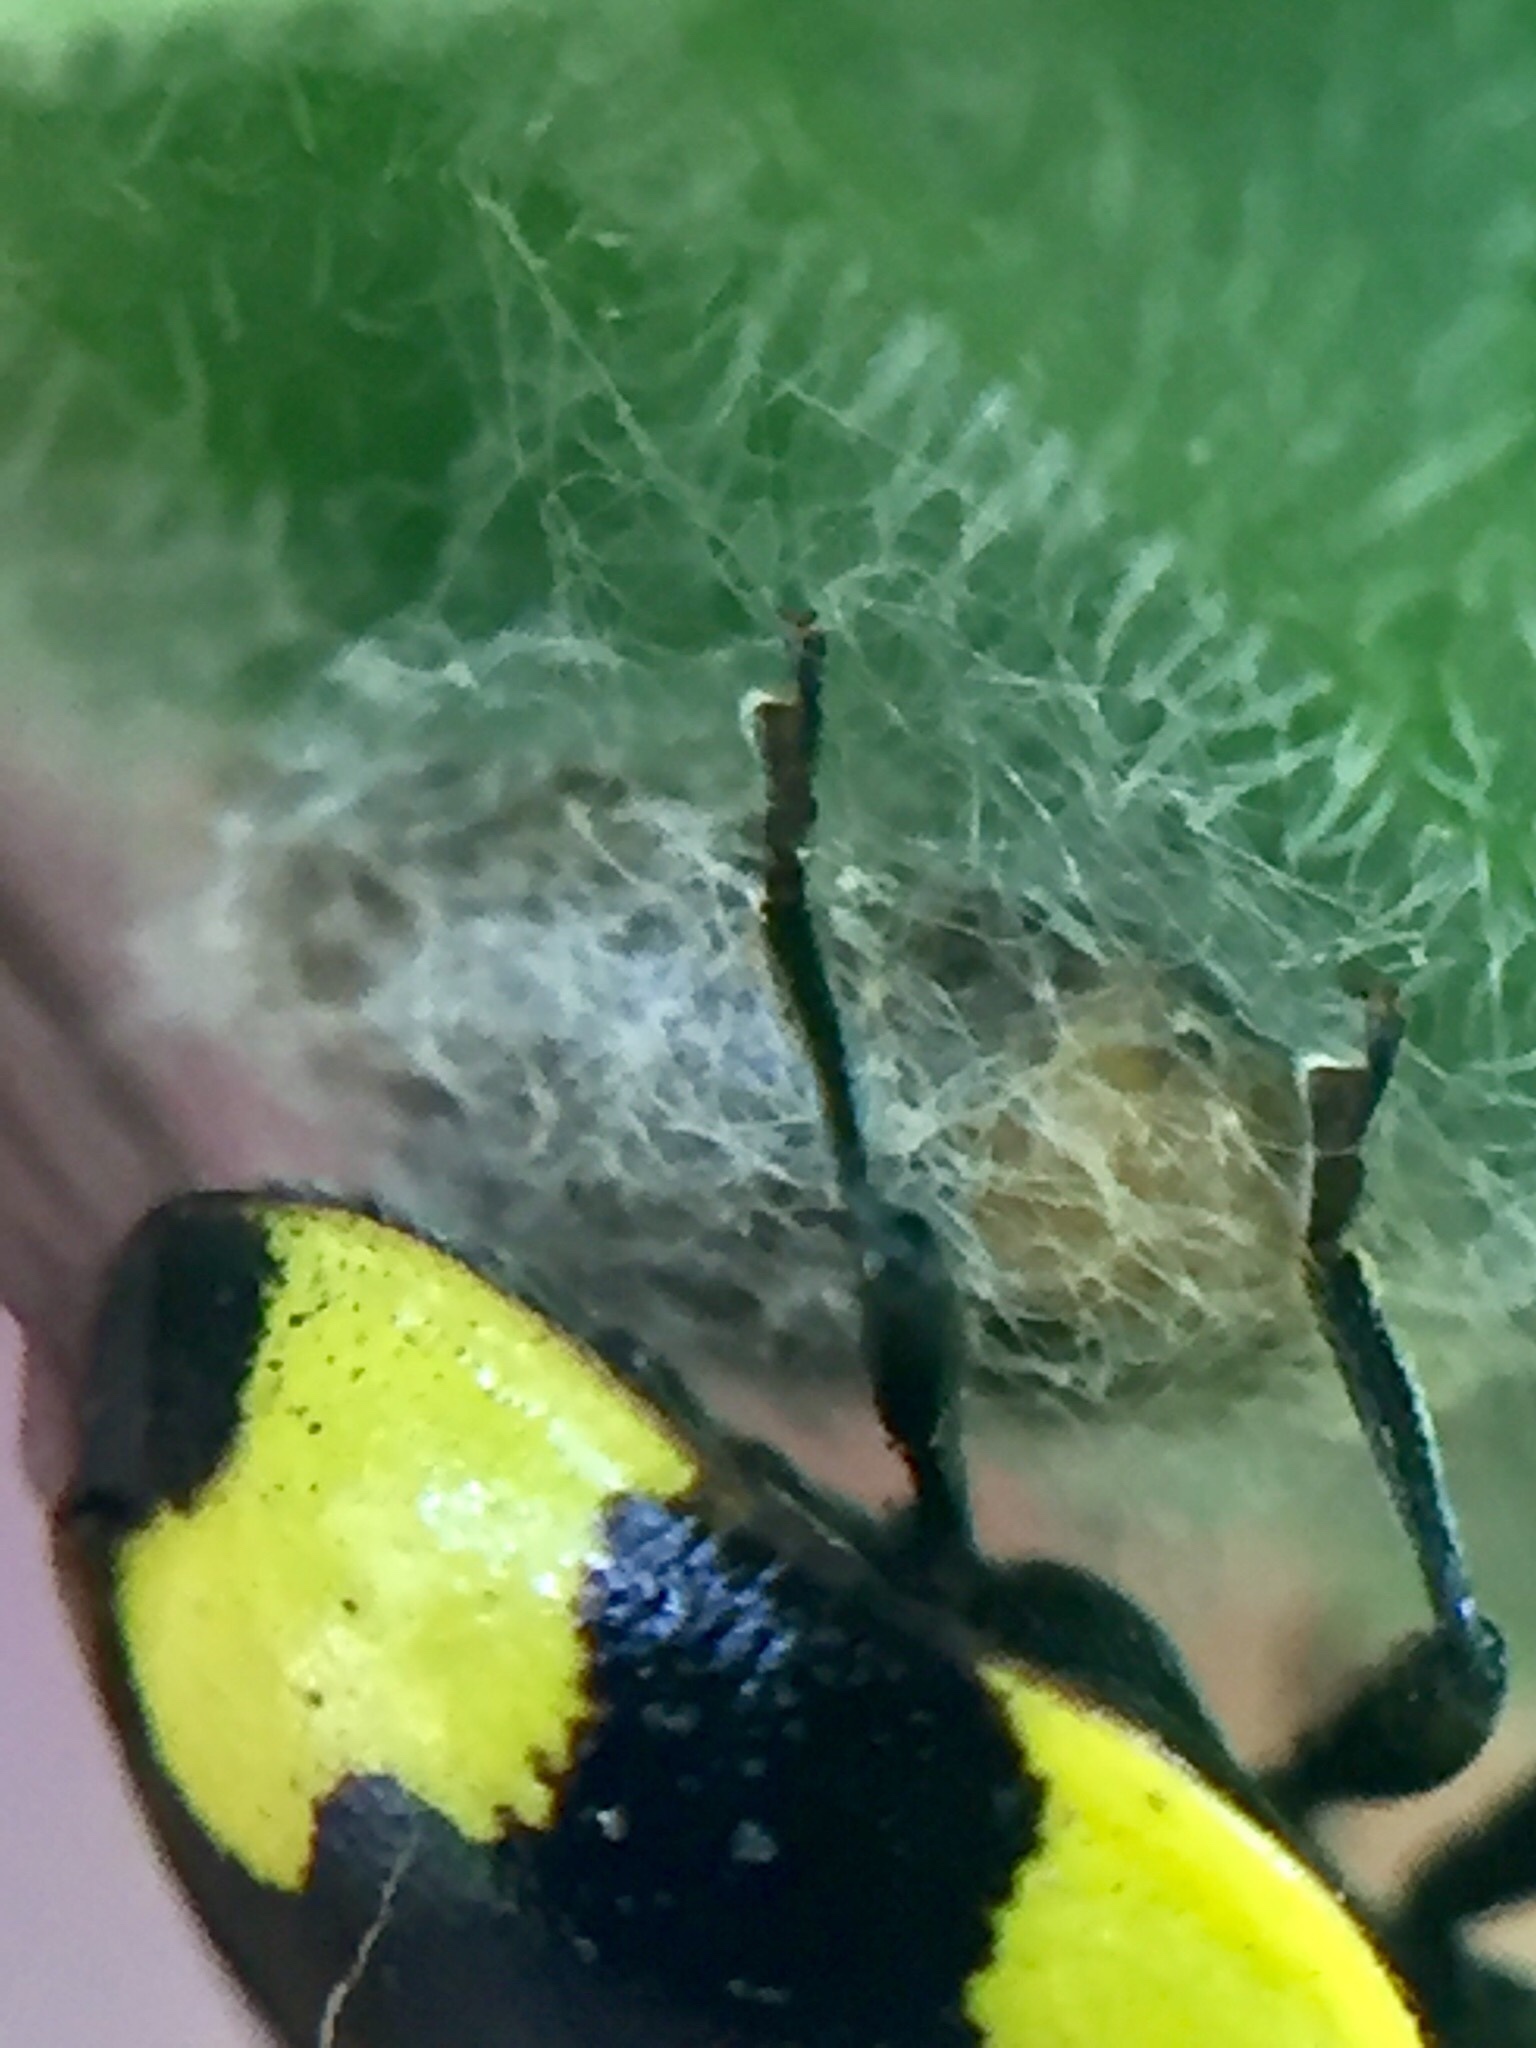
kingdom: Animalia
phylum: Arthropoda
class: Insecta
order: Hymenoptera
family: Braconidae
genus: Dinocampus
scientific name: Dinocampus coccinellae
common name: Braconid wasp
